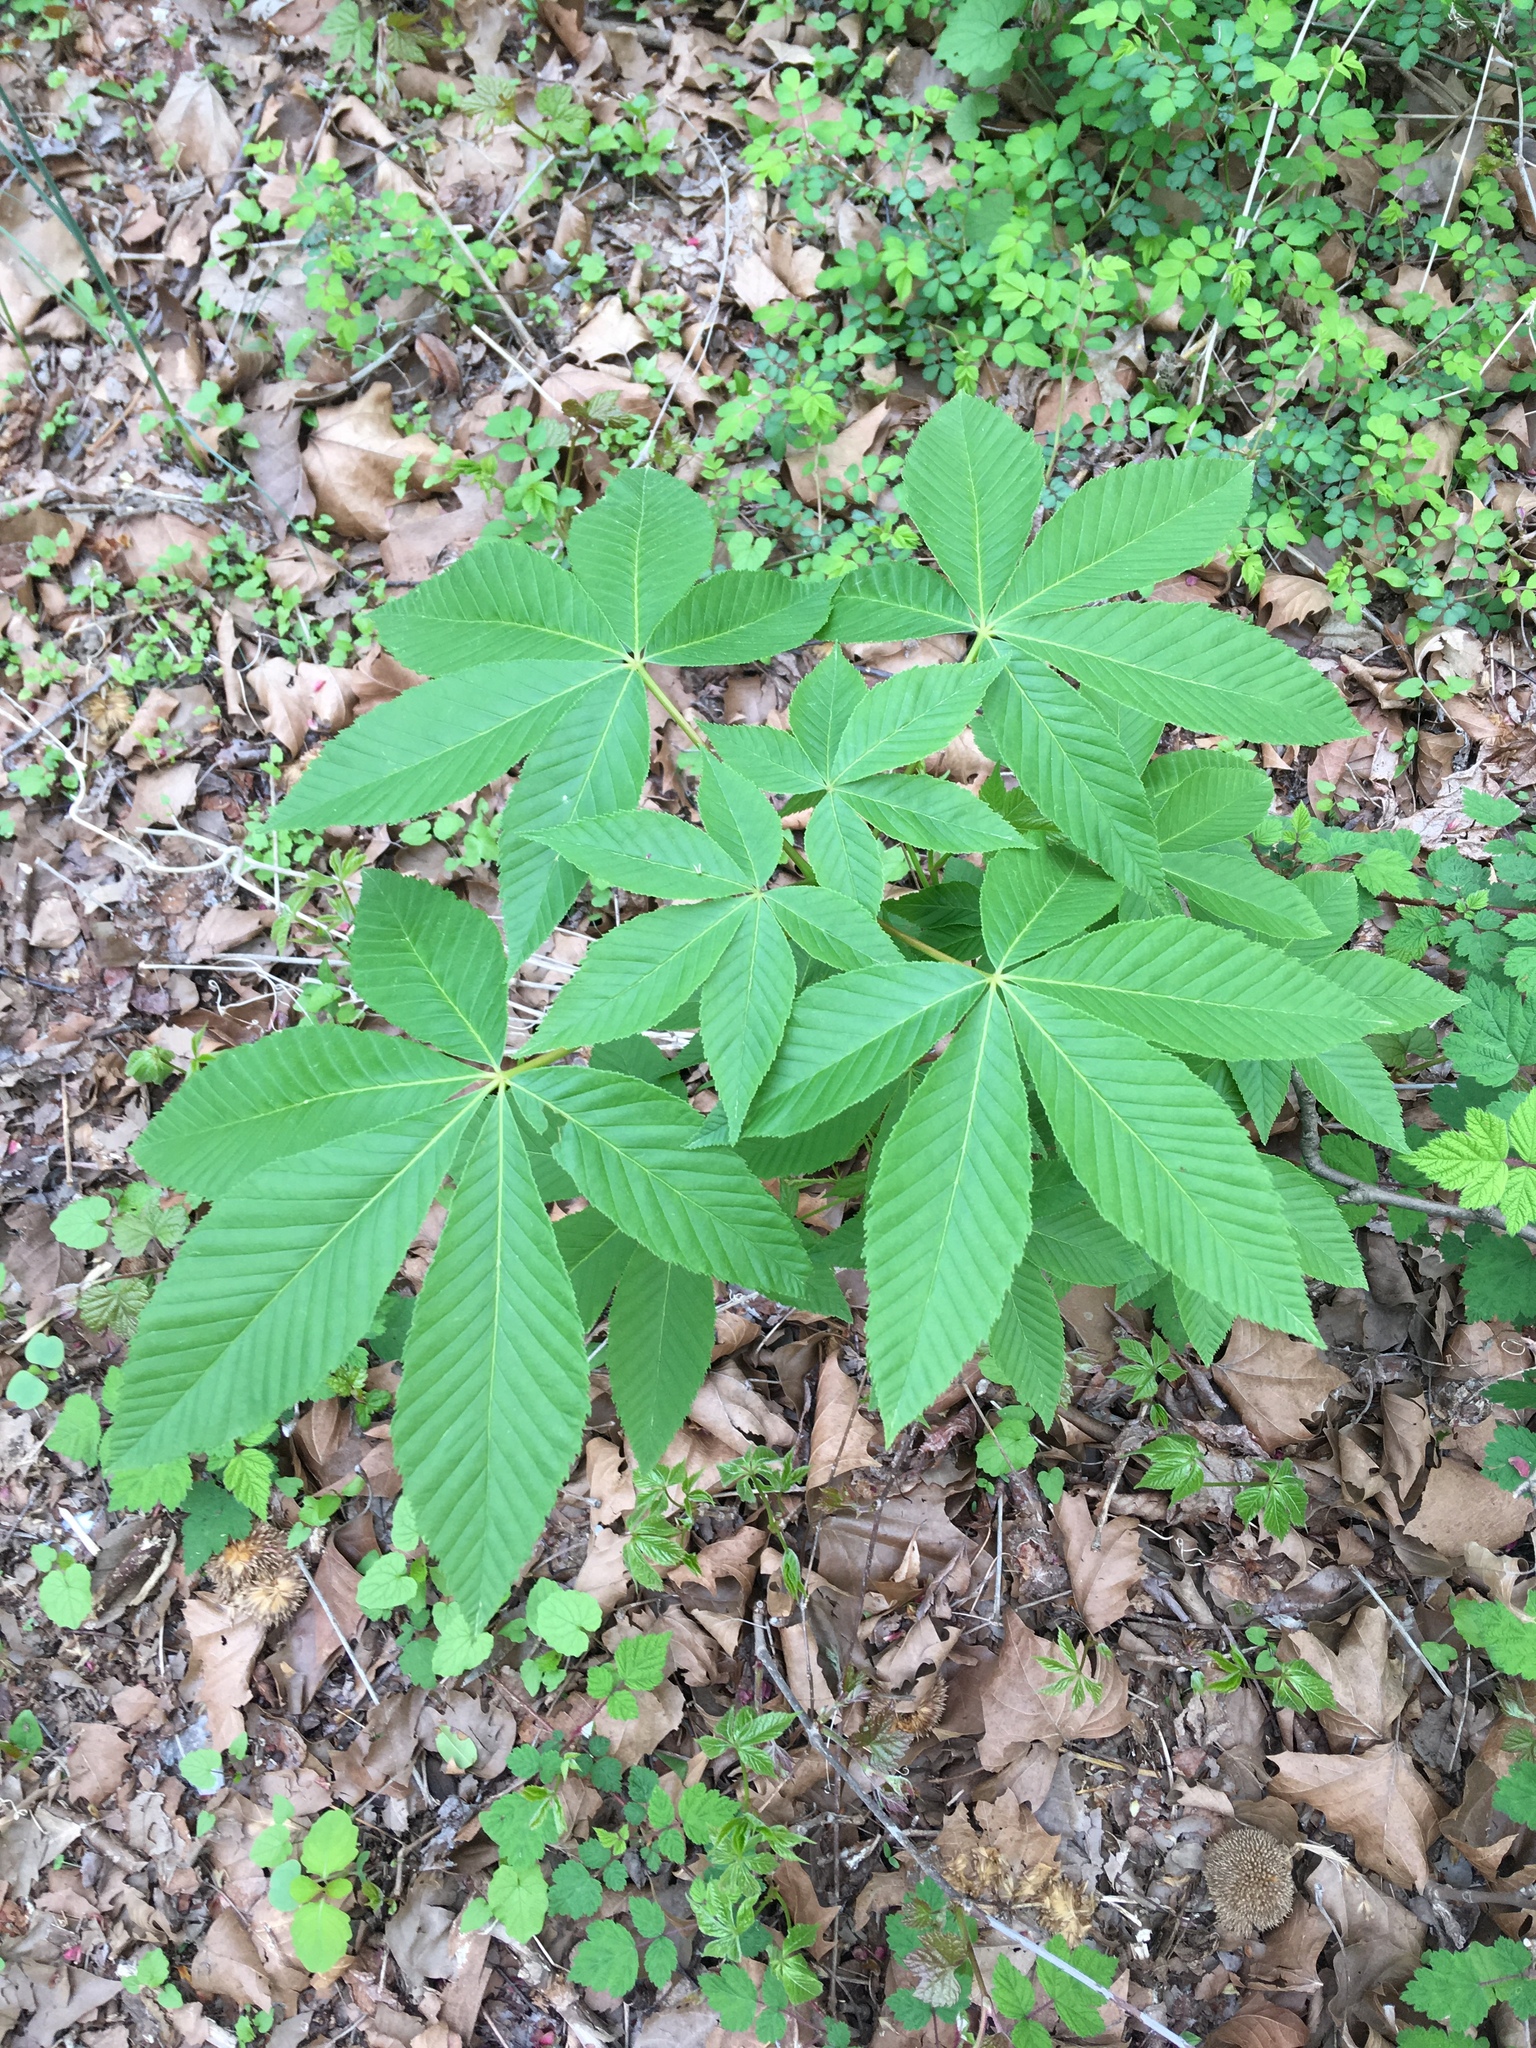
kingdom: Plantae
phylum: Tracheophyta
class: Magnoliopsida
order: Sapindales
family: Sapindaceae
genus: Aesculus
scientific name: Aesculus glabra
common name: Ohio buckeye
